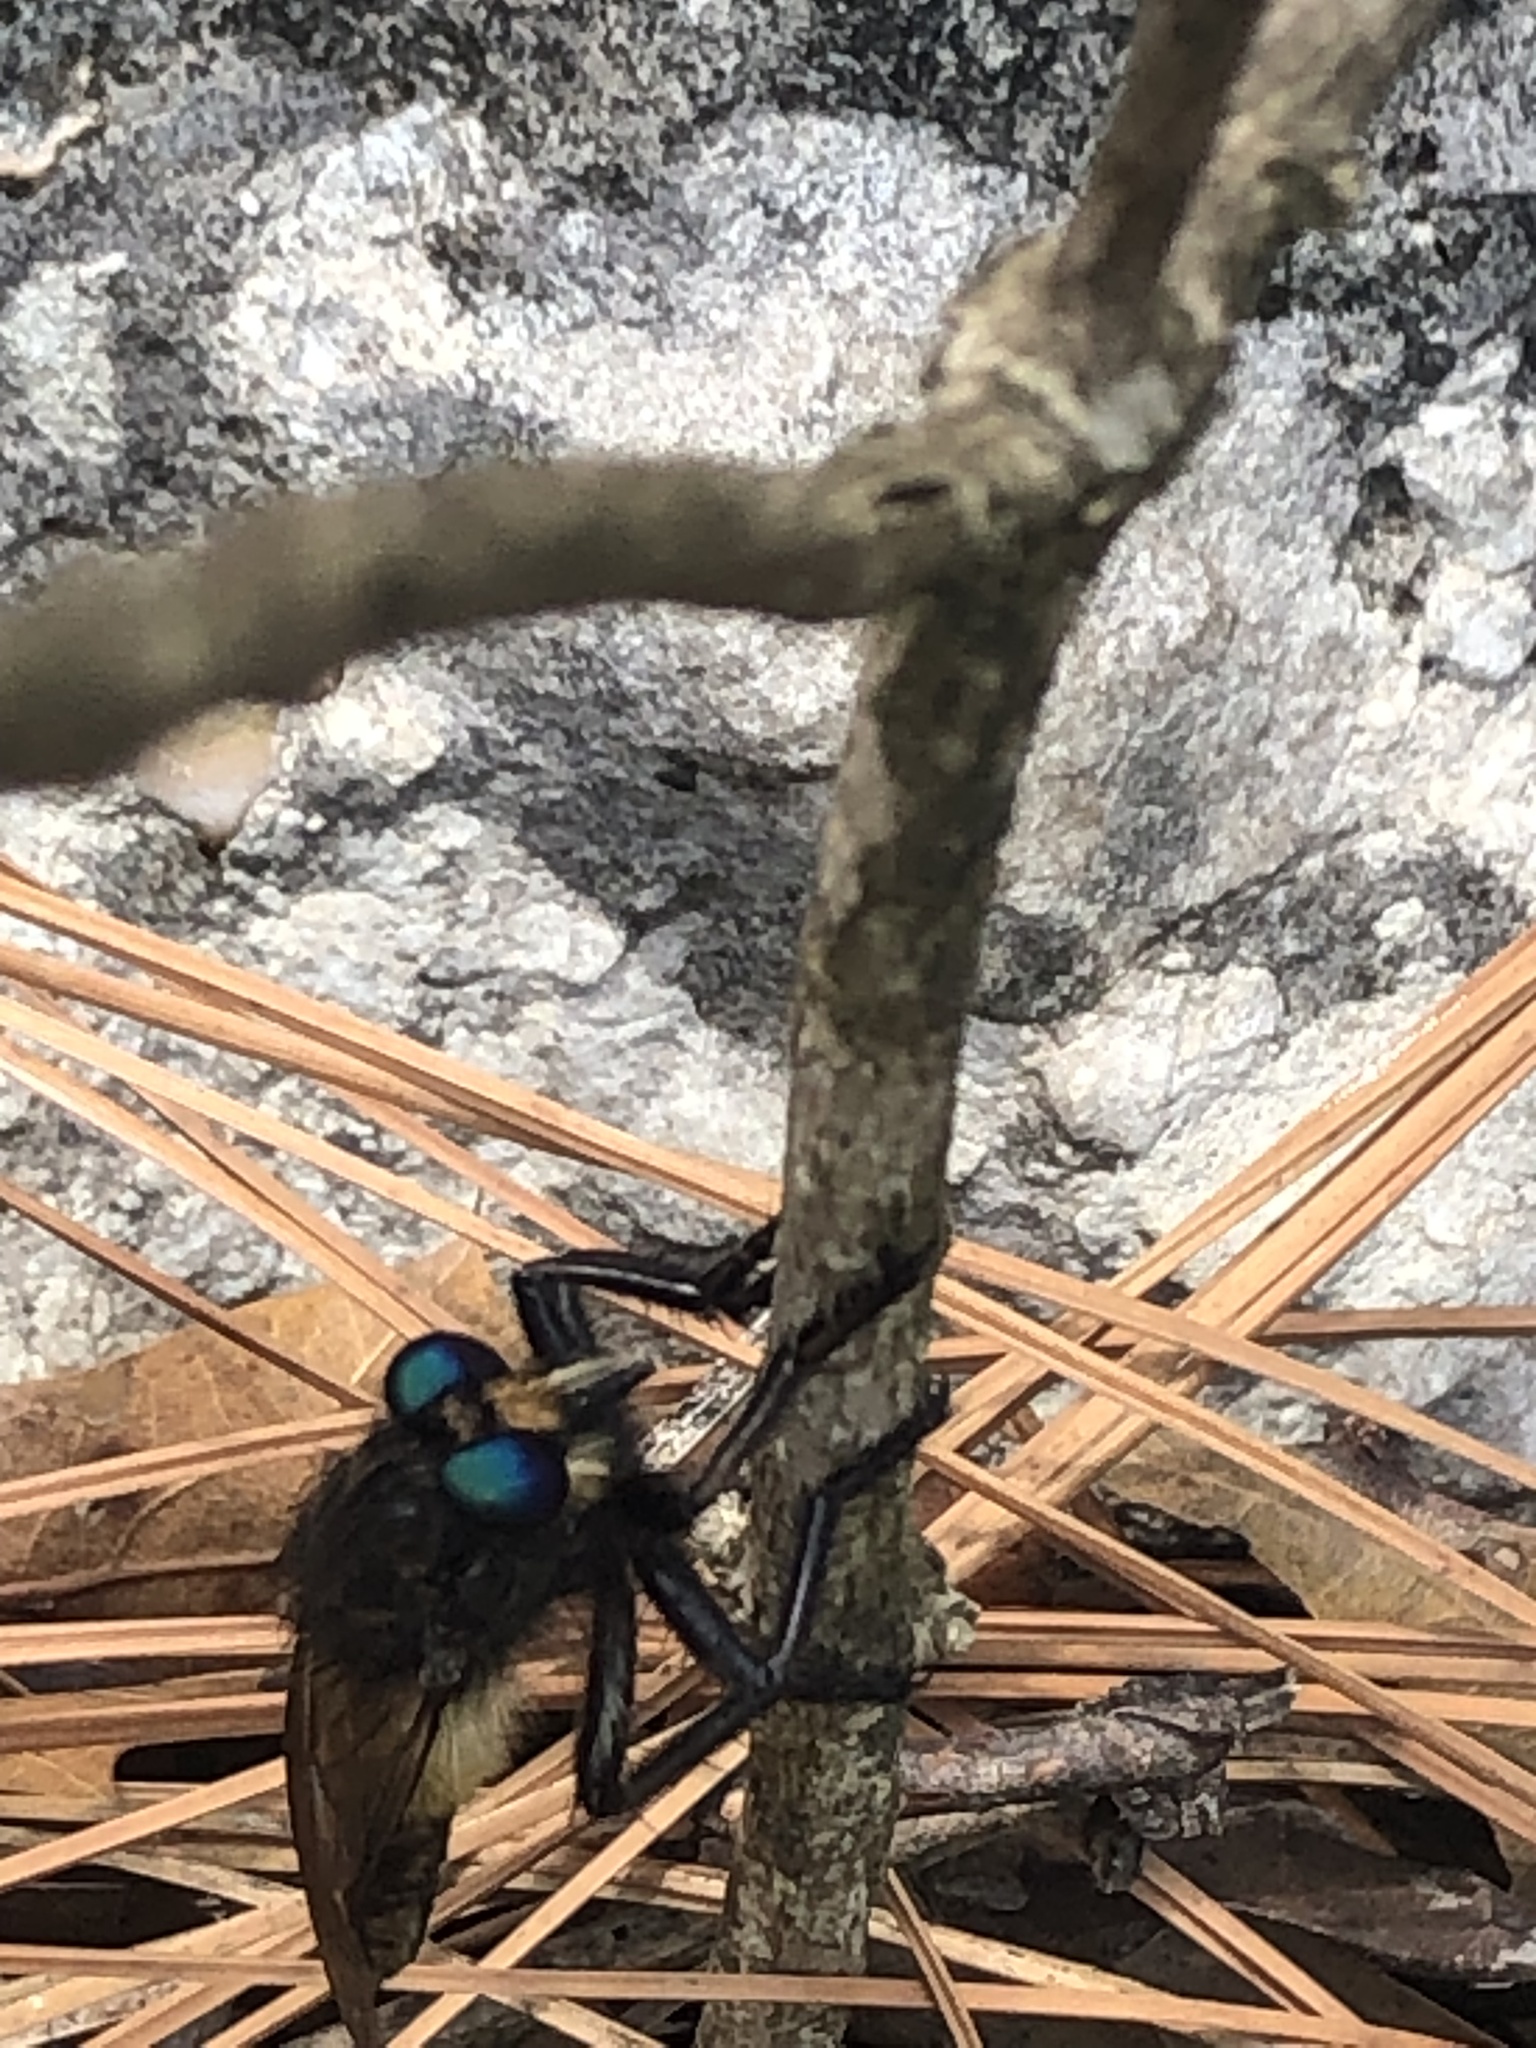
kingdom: Animalia
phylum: Arthropoda
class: Insecta
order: Diptera
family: Asilidae
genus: Promachus
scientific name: Promachus painteri
